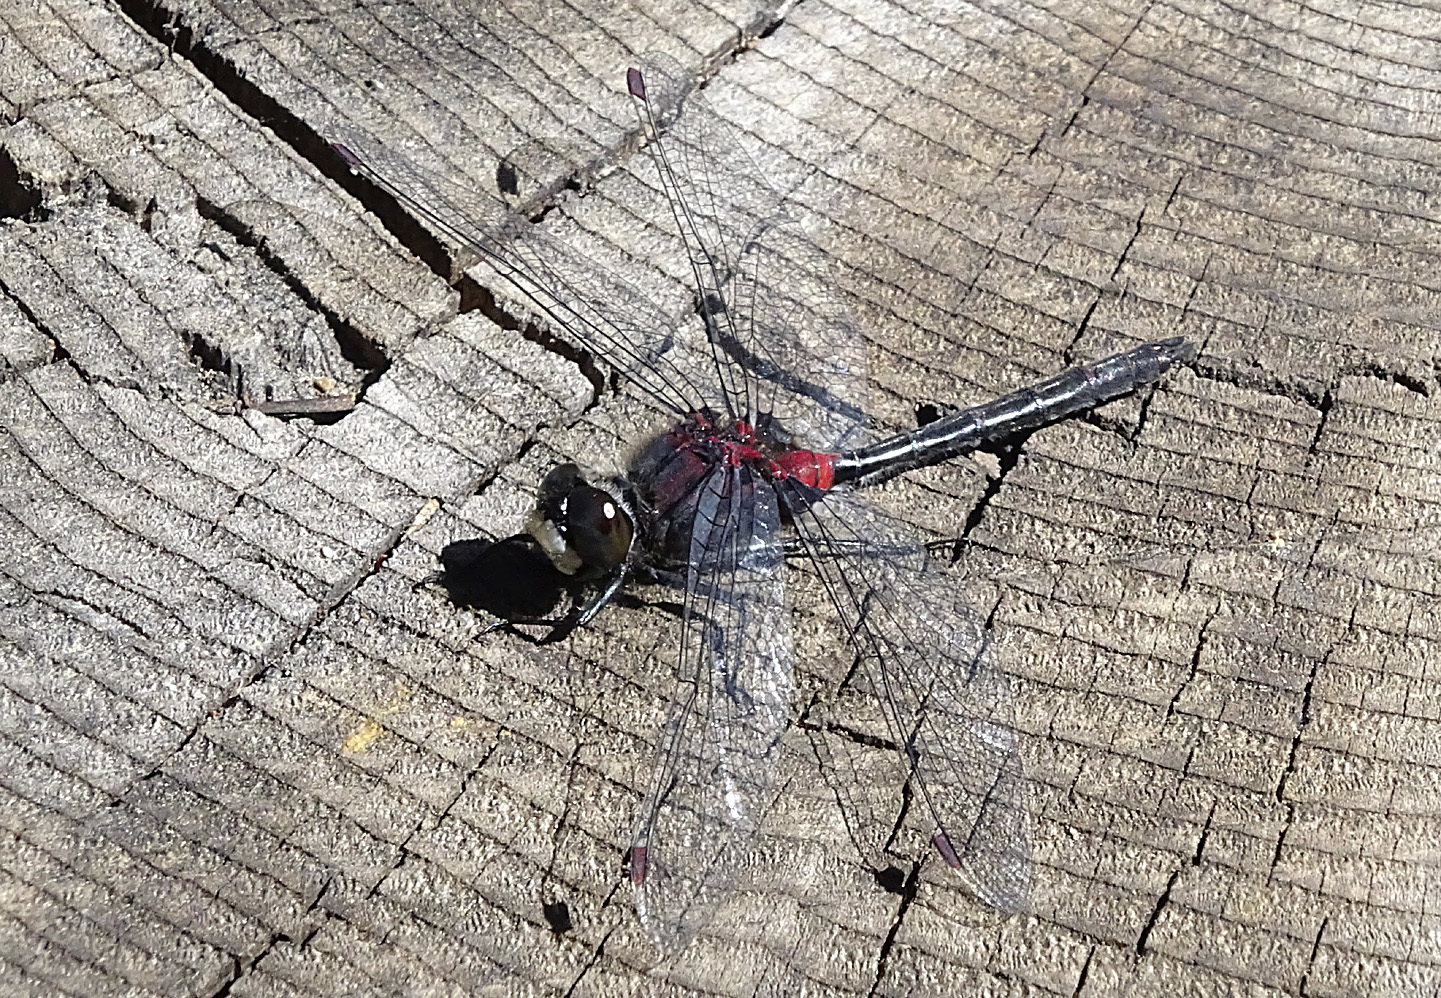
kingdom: Animalia
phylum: Arthropoda
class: Insecta
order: Odonata
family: Libellulidae
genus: Leucorrhinia
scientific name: Leucorrhinia glacialis
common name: Crimson-ringed whiteface
